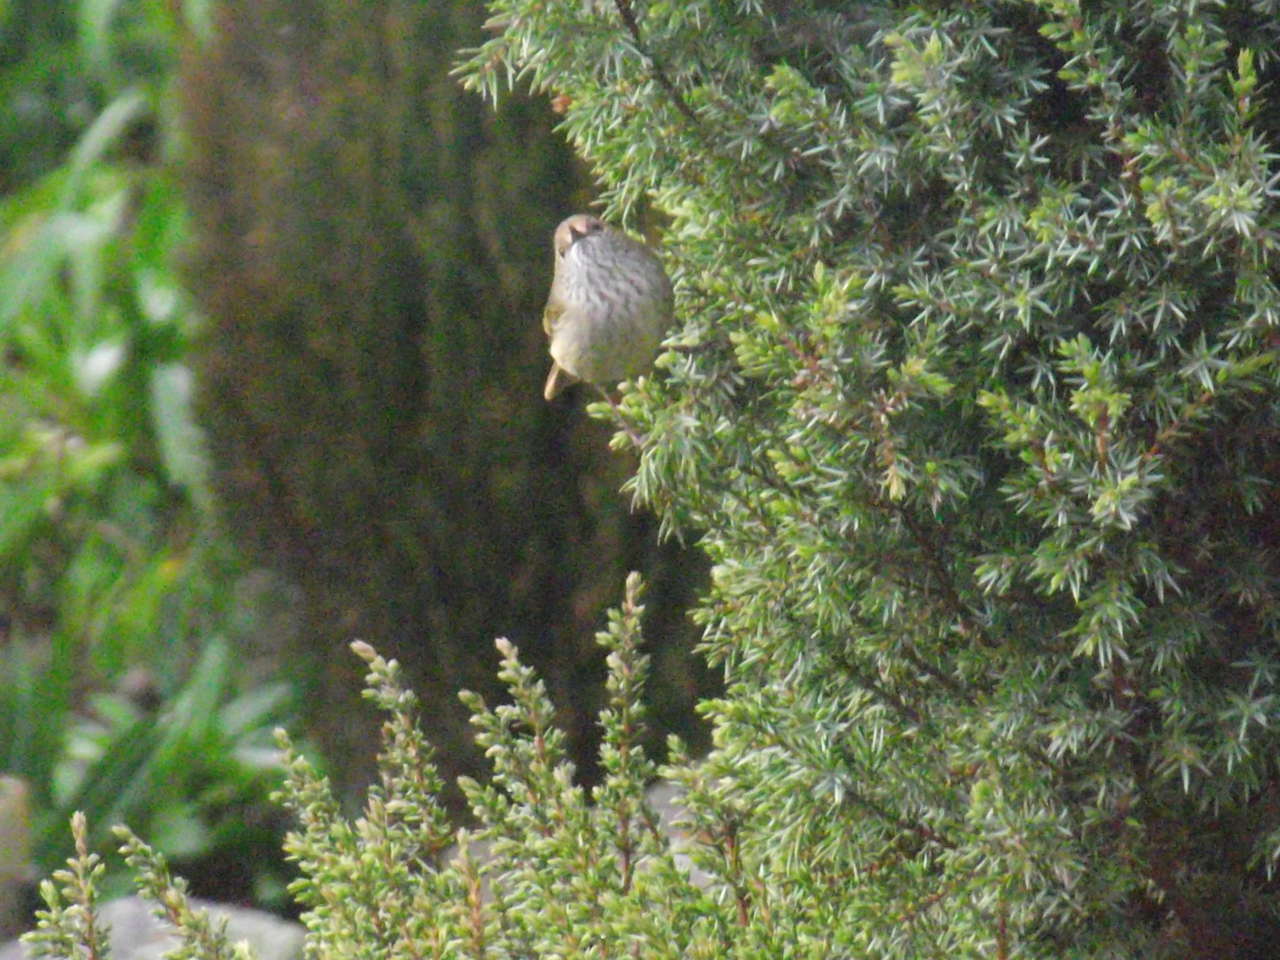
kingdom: Animalia
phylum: Chordata
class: Aves
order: Passeriformes
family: Acanthizidae
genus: Acanthiza
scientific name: Acanthiza pusilla
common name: Brown thornbill
